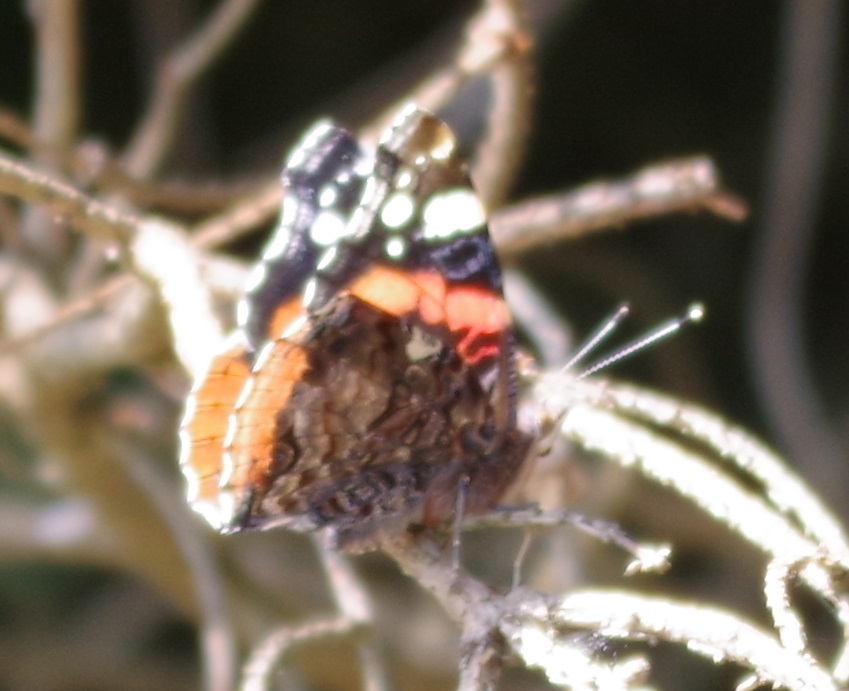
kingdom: Animalia
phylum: Arthropoda
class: Insecta
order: Lepidoptera
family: Nymphalidae
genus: Vanessa
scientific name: Vanessa atalanta
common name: Red admiral
